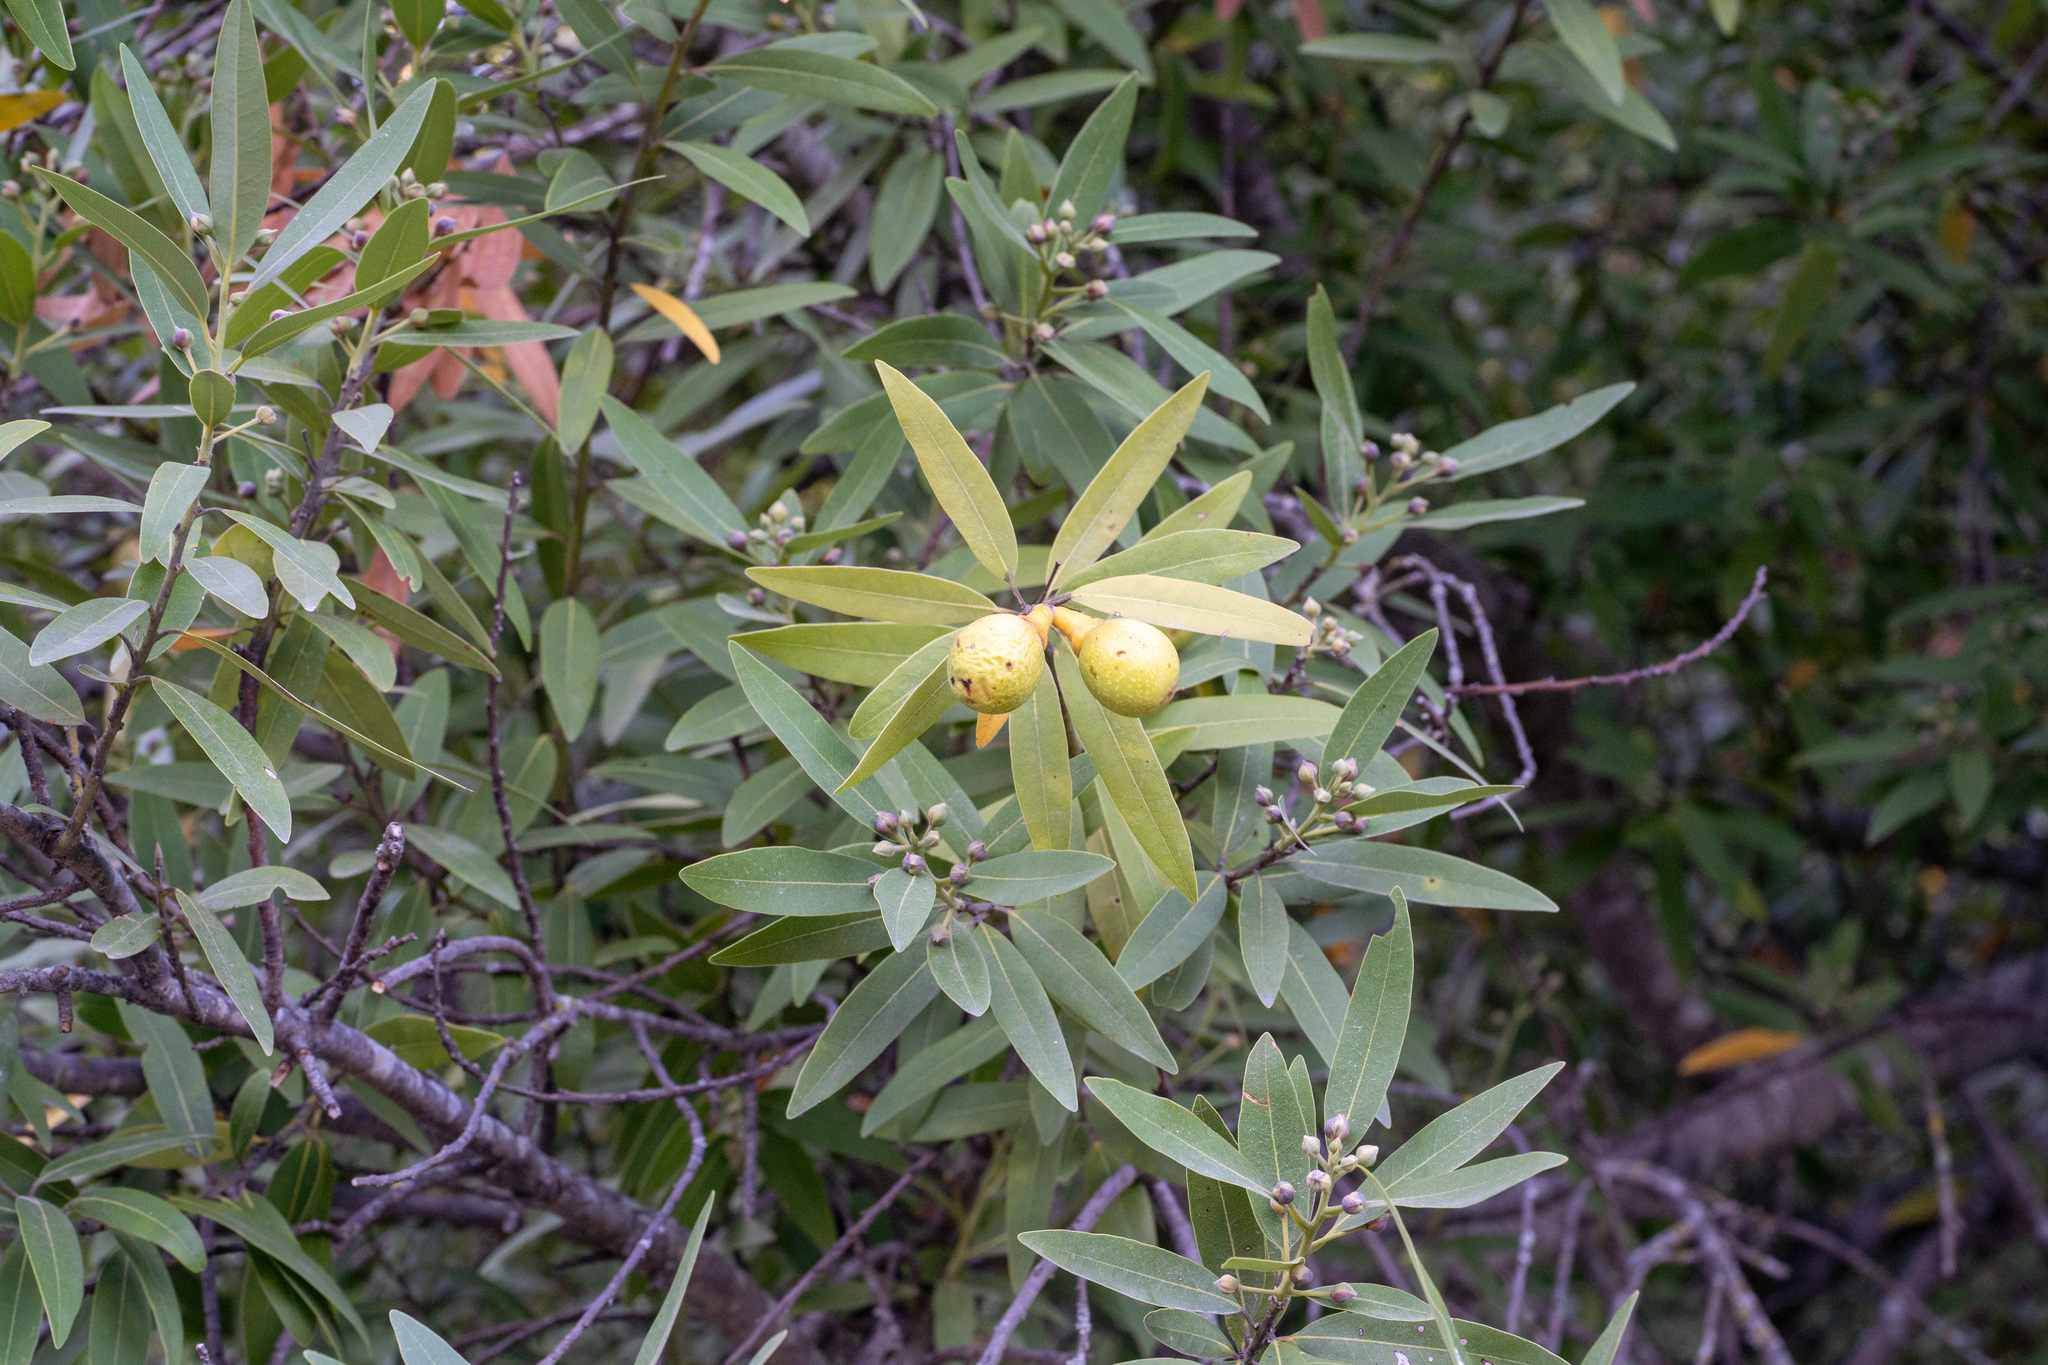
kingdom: Plantae
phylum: Tracheophyta
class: Magnoliopsida
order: Laurales
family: Lauraceae
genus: Umbellularia
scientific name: Umbellularia californica
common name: California bay
